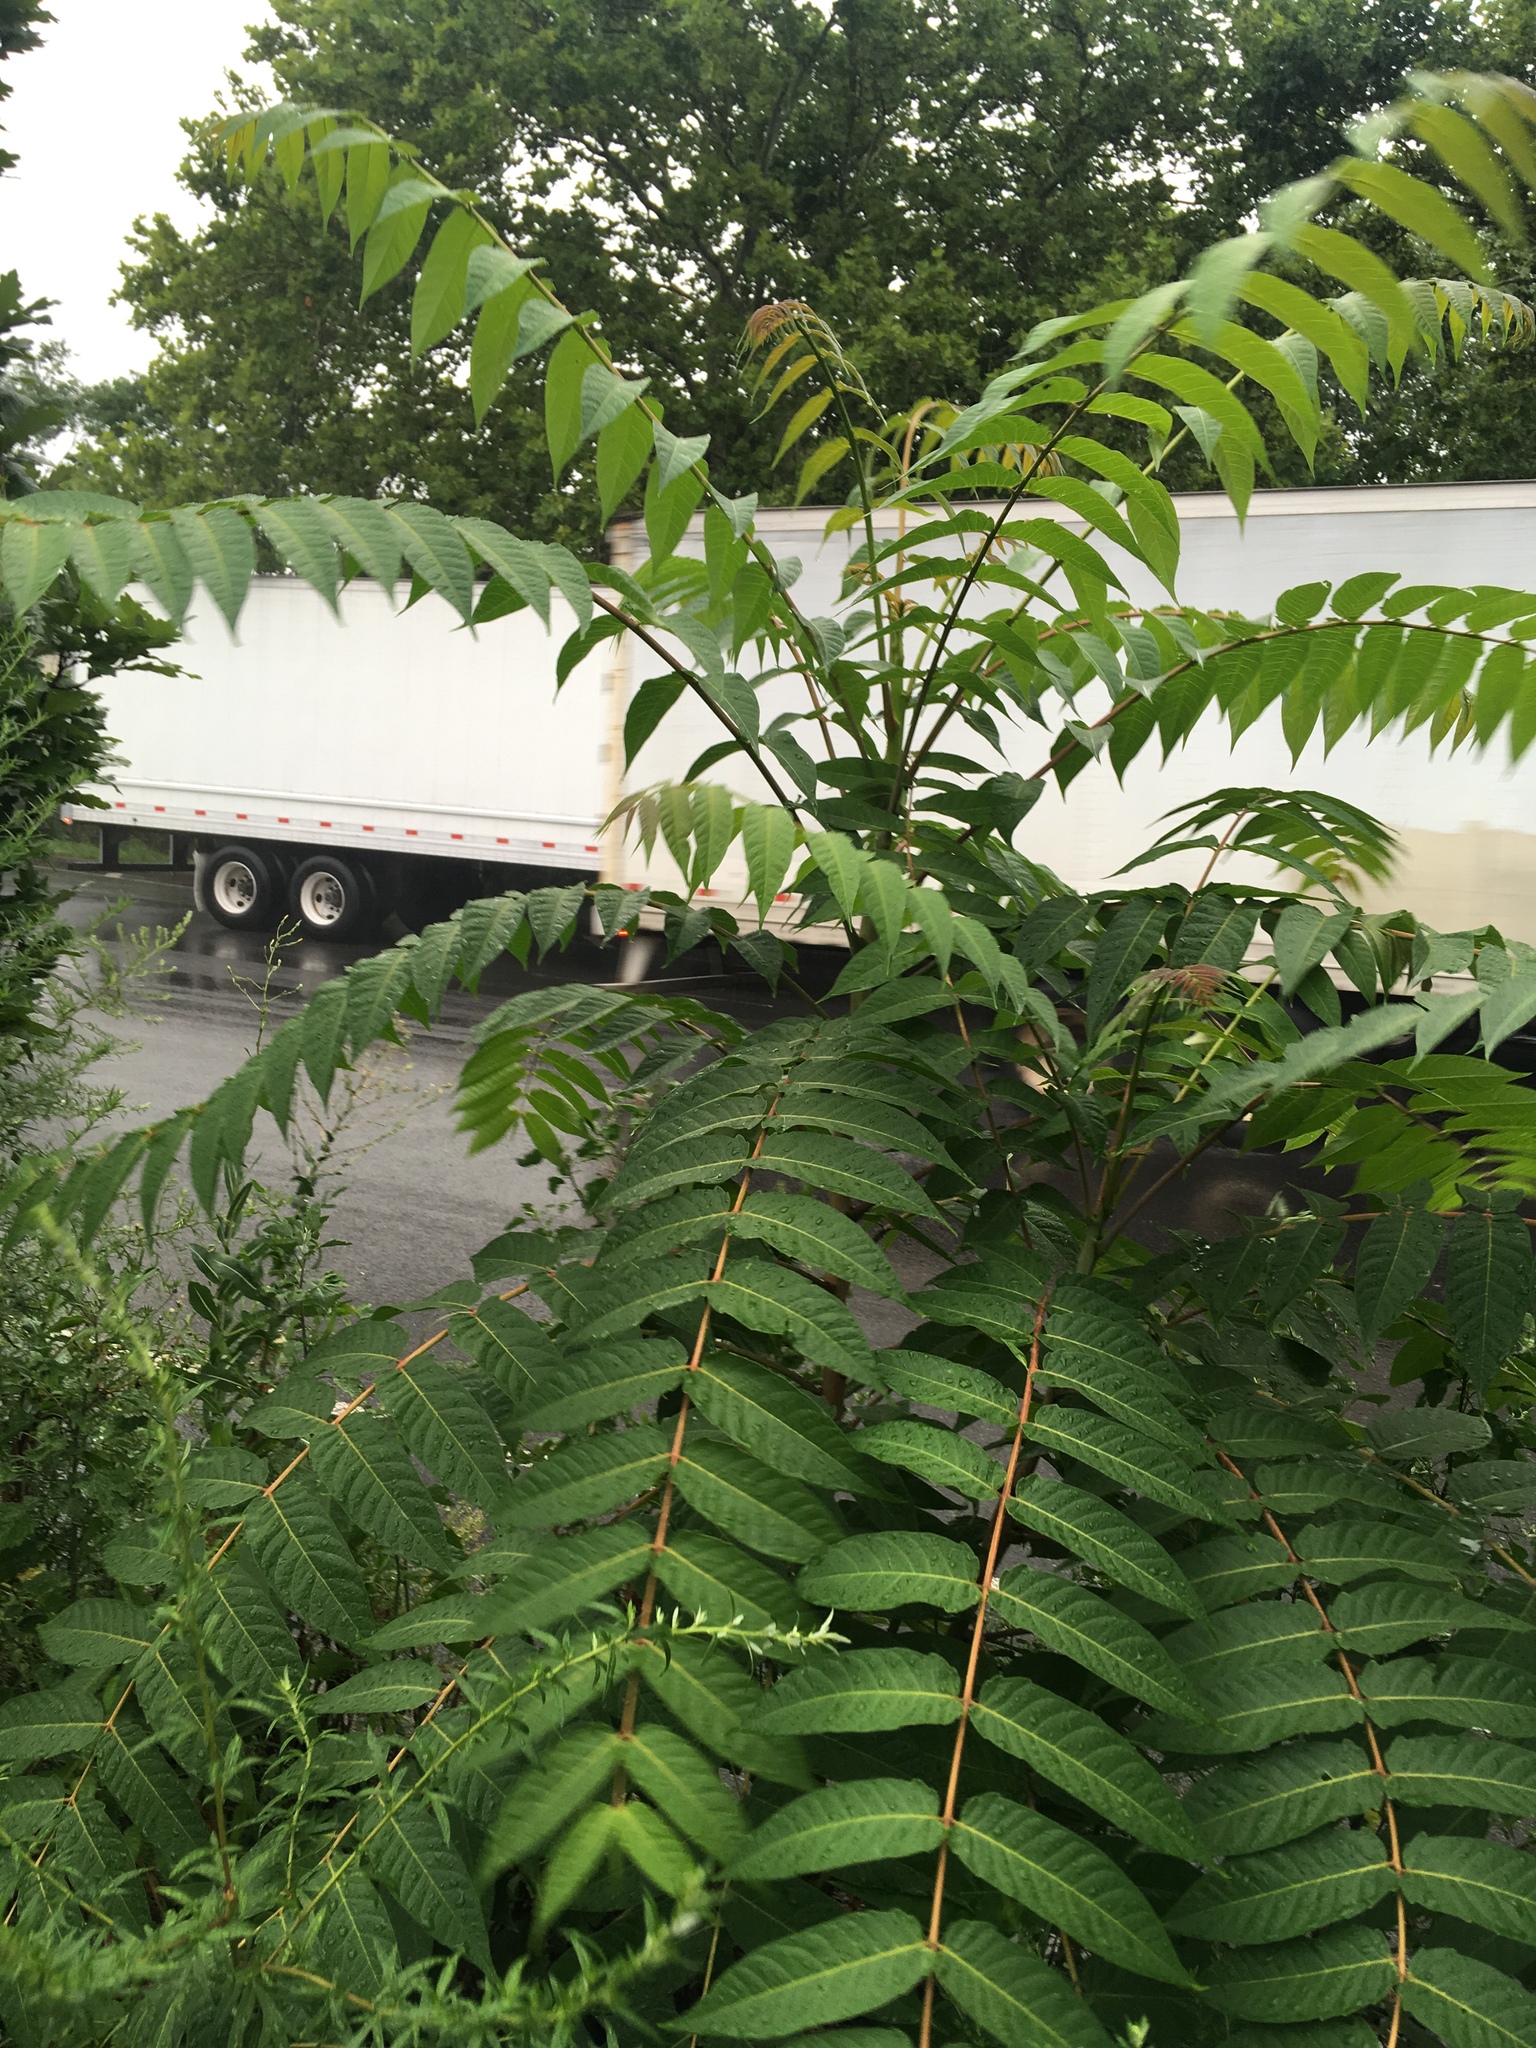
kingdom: Plantae
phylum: Tracheophyta
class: Magnoliopsida
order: Sapindales
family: Simaroubaceae
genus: Ailanthus
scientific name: Ailanthus altissima
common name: Tree-of-heaven
